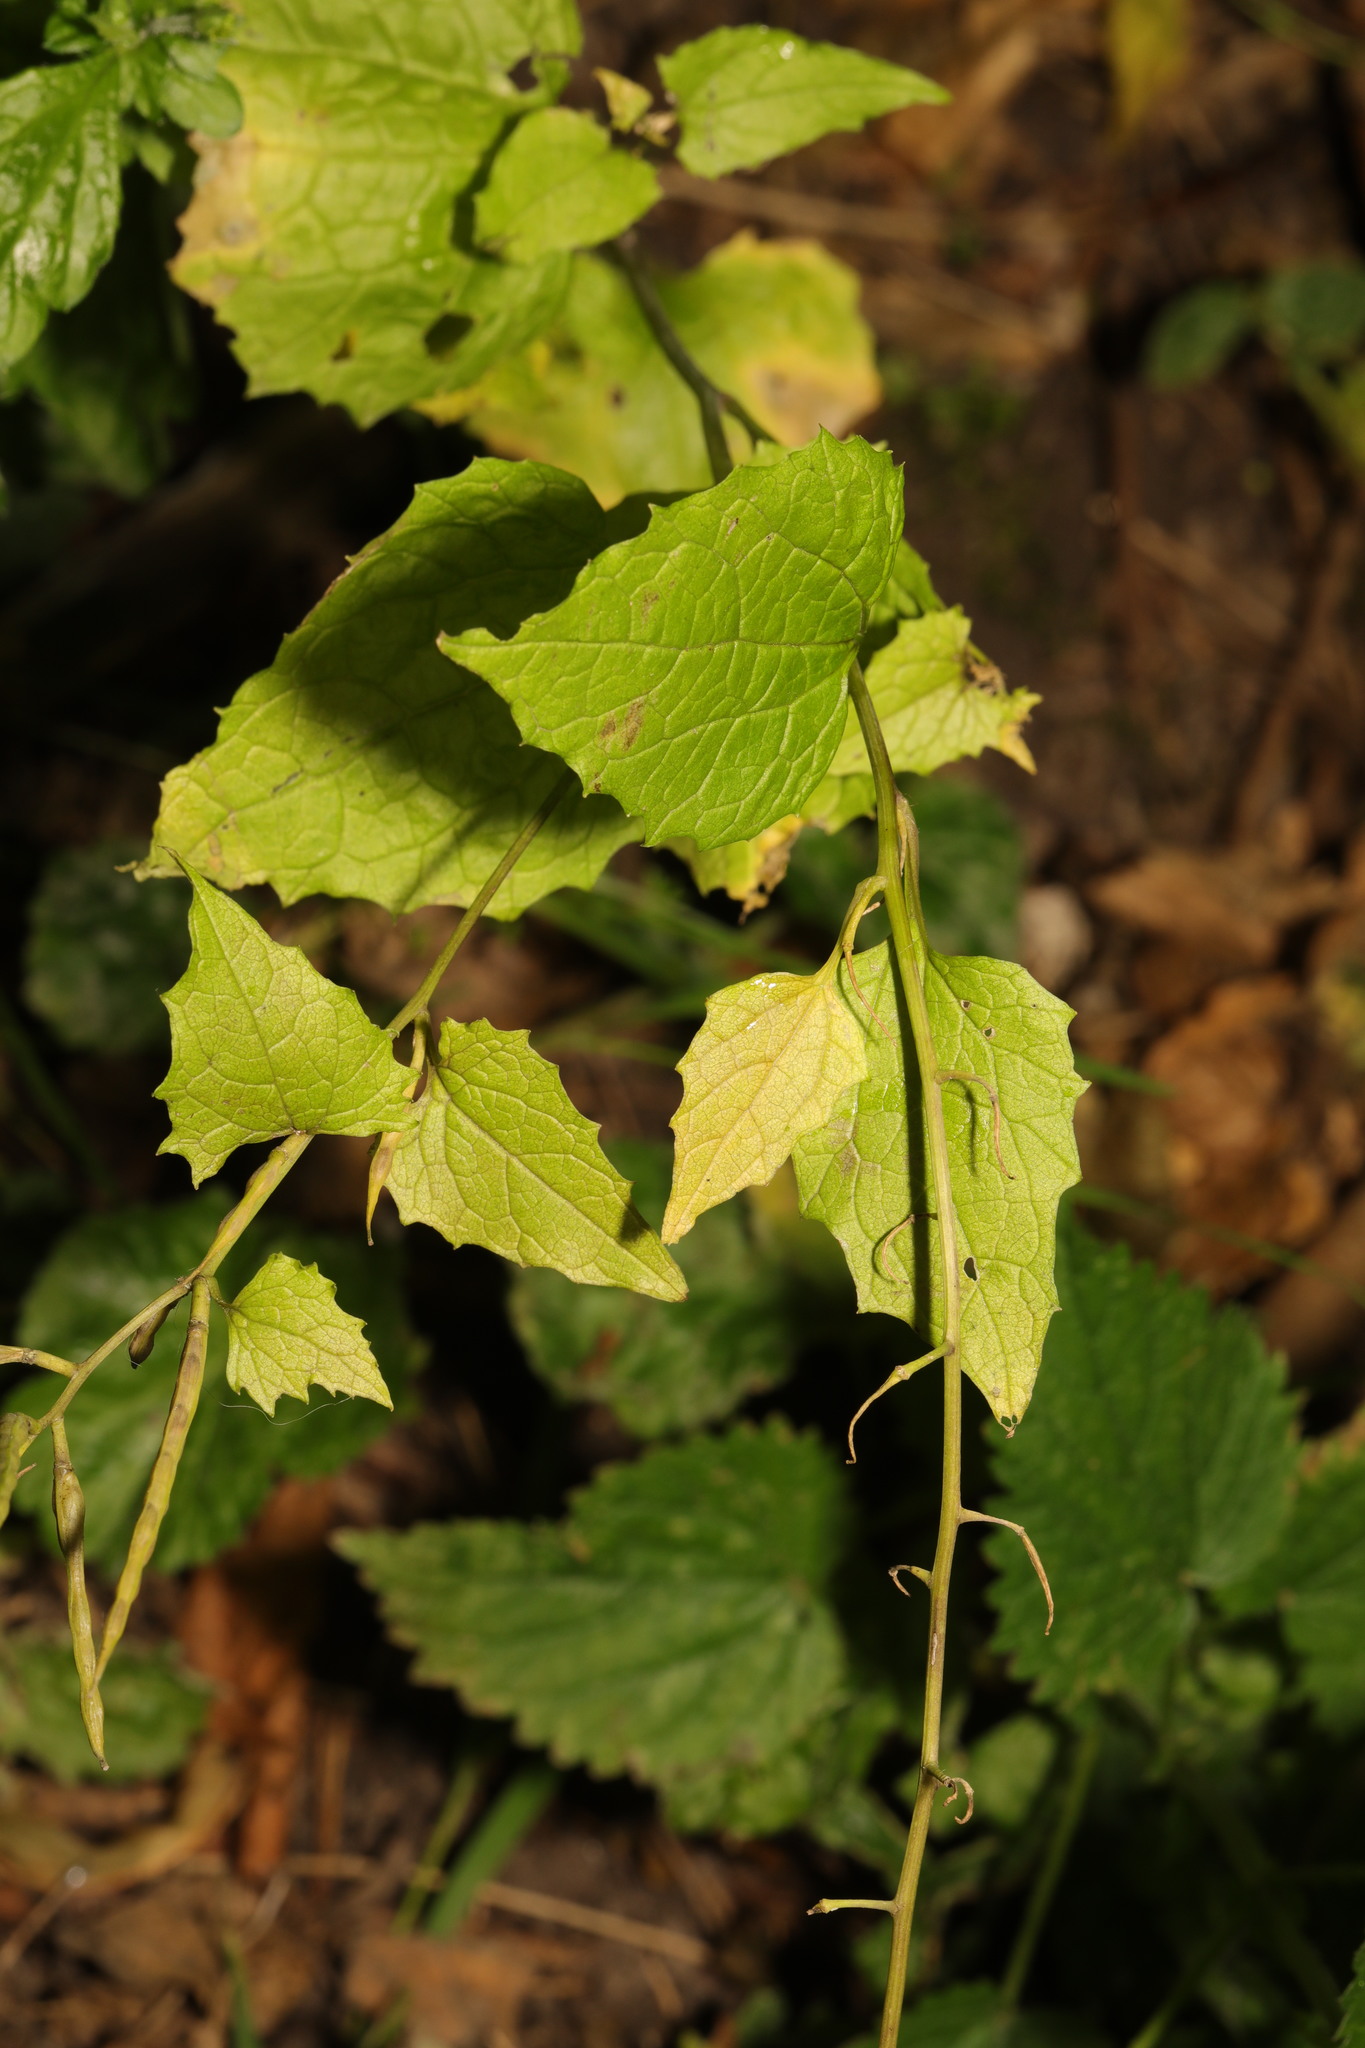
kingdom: Plantae
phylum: Tracheophyta
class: Magnoliopsida
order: Brassicales
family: Brassicaceae
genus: Alliaria
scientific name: Alliaria petiolata
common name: Garlic mustard
